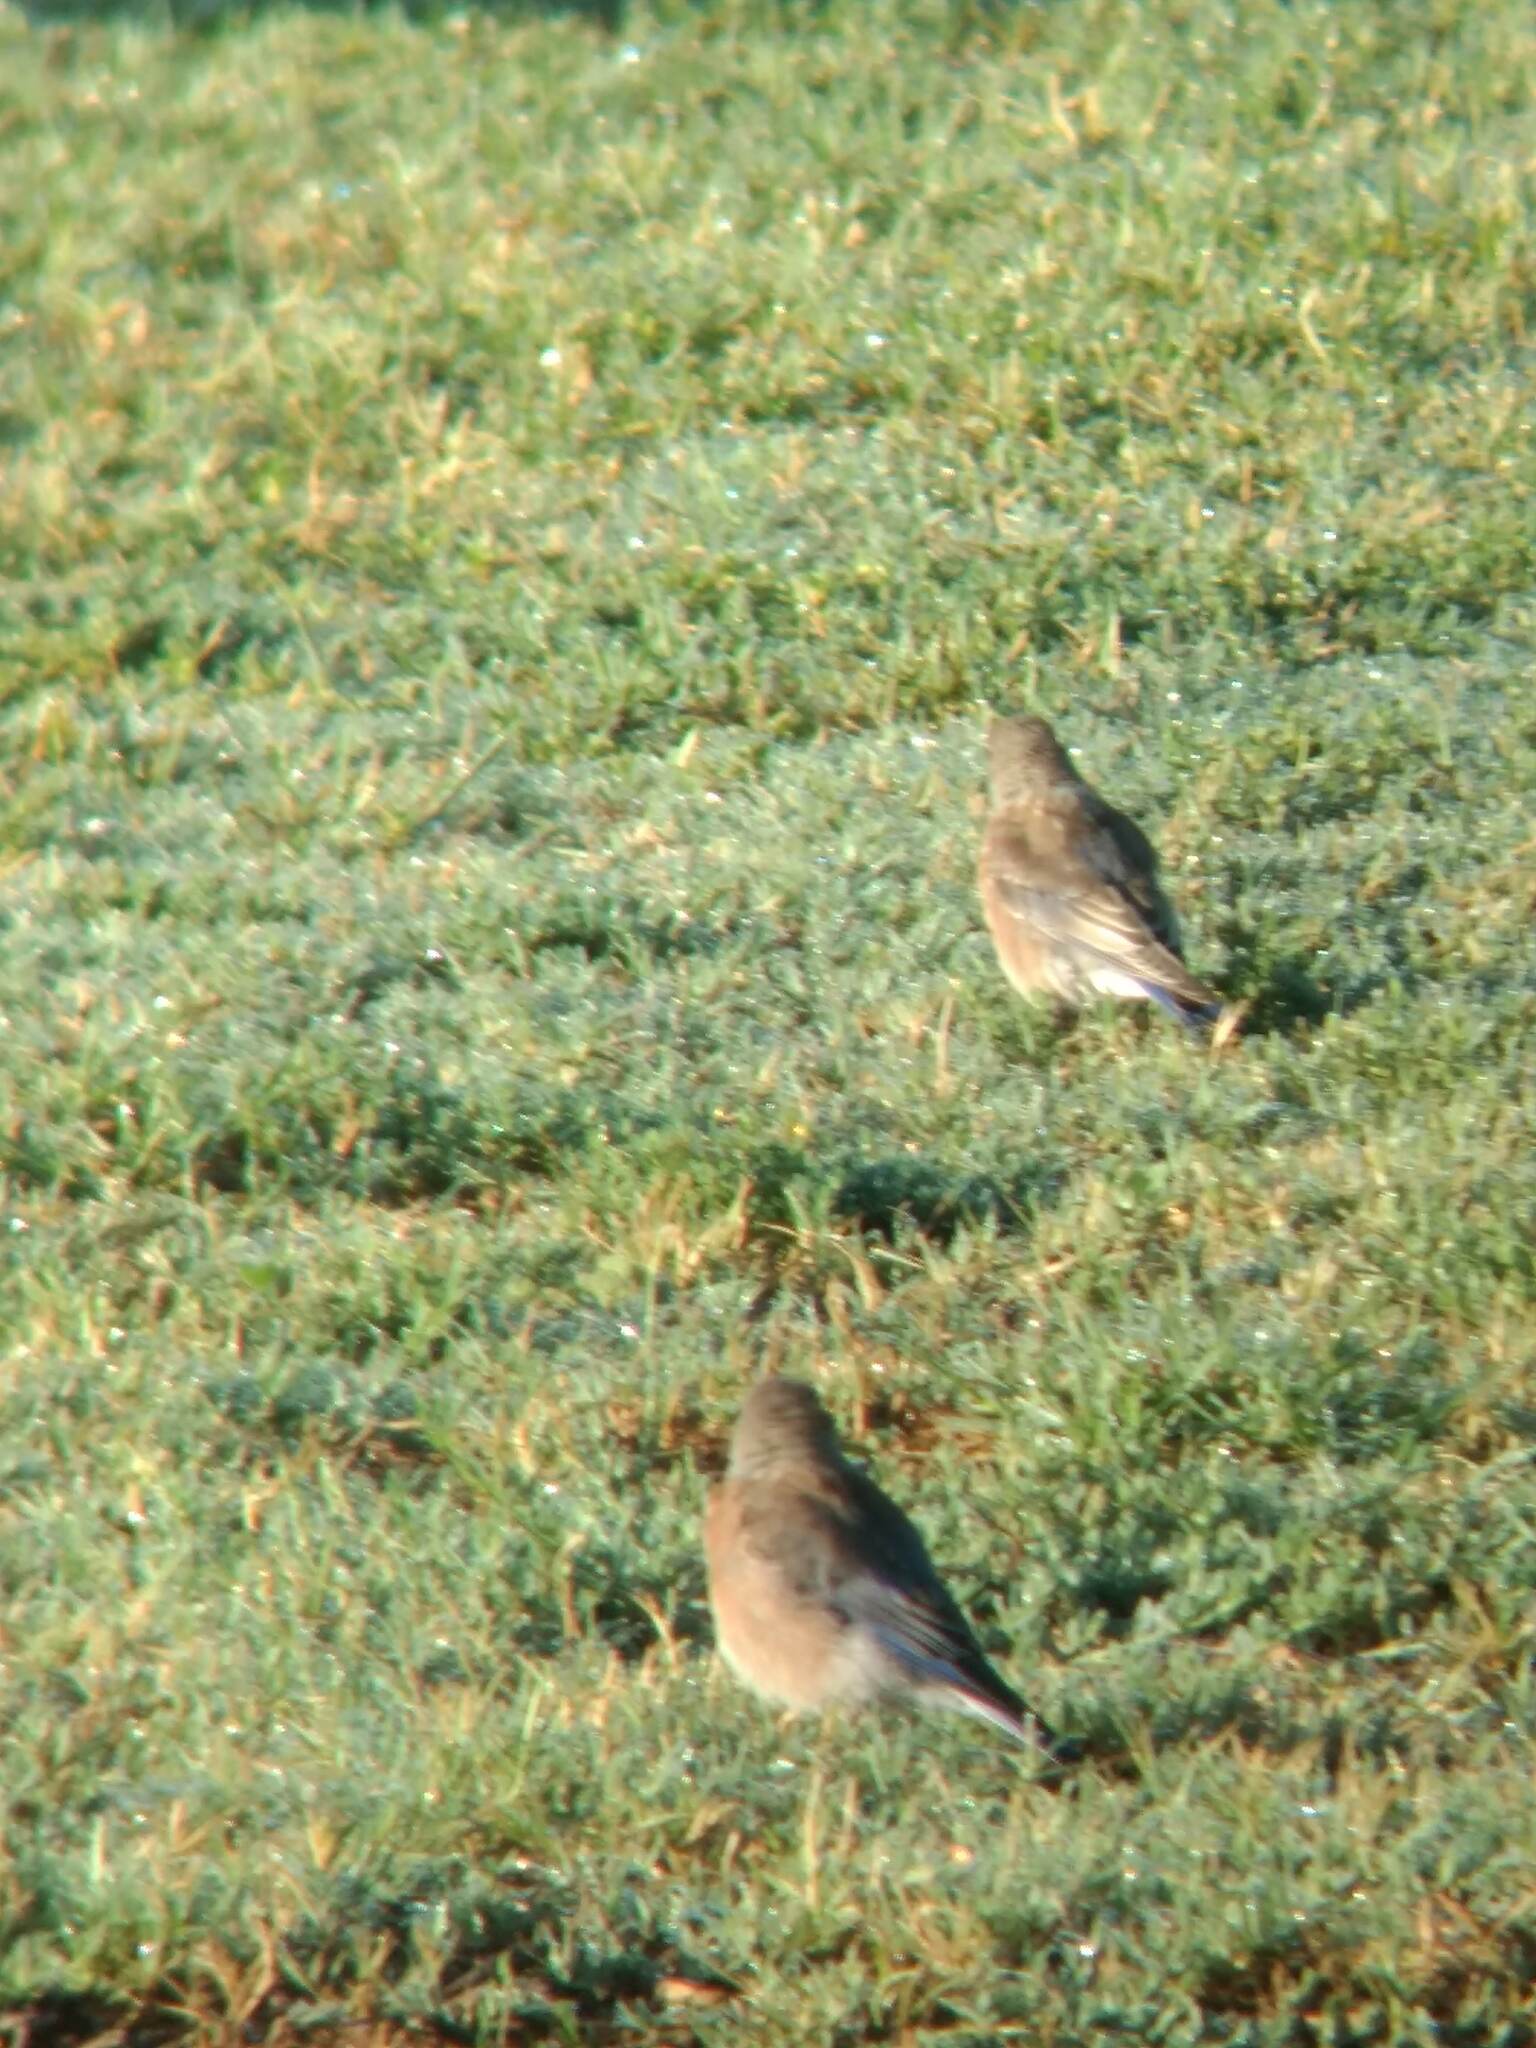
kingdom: Animalia
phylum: Chordata
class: Aves
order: Passeriformes
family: Turdidae
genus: Sialia
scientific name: Sialia mexicana
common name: Western bluebird
